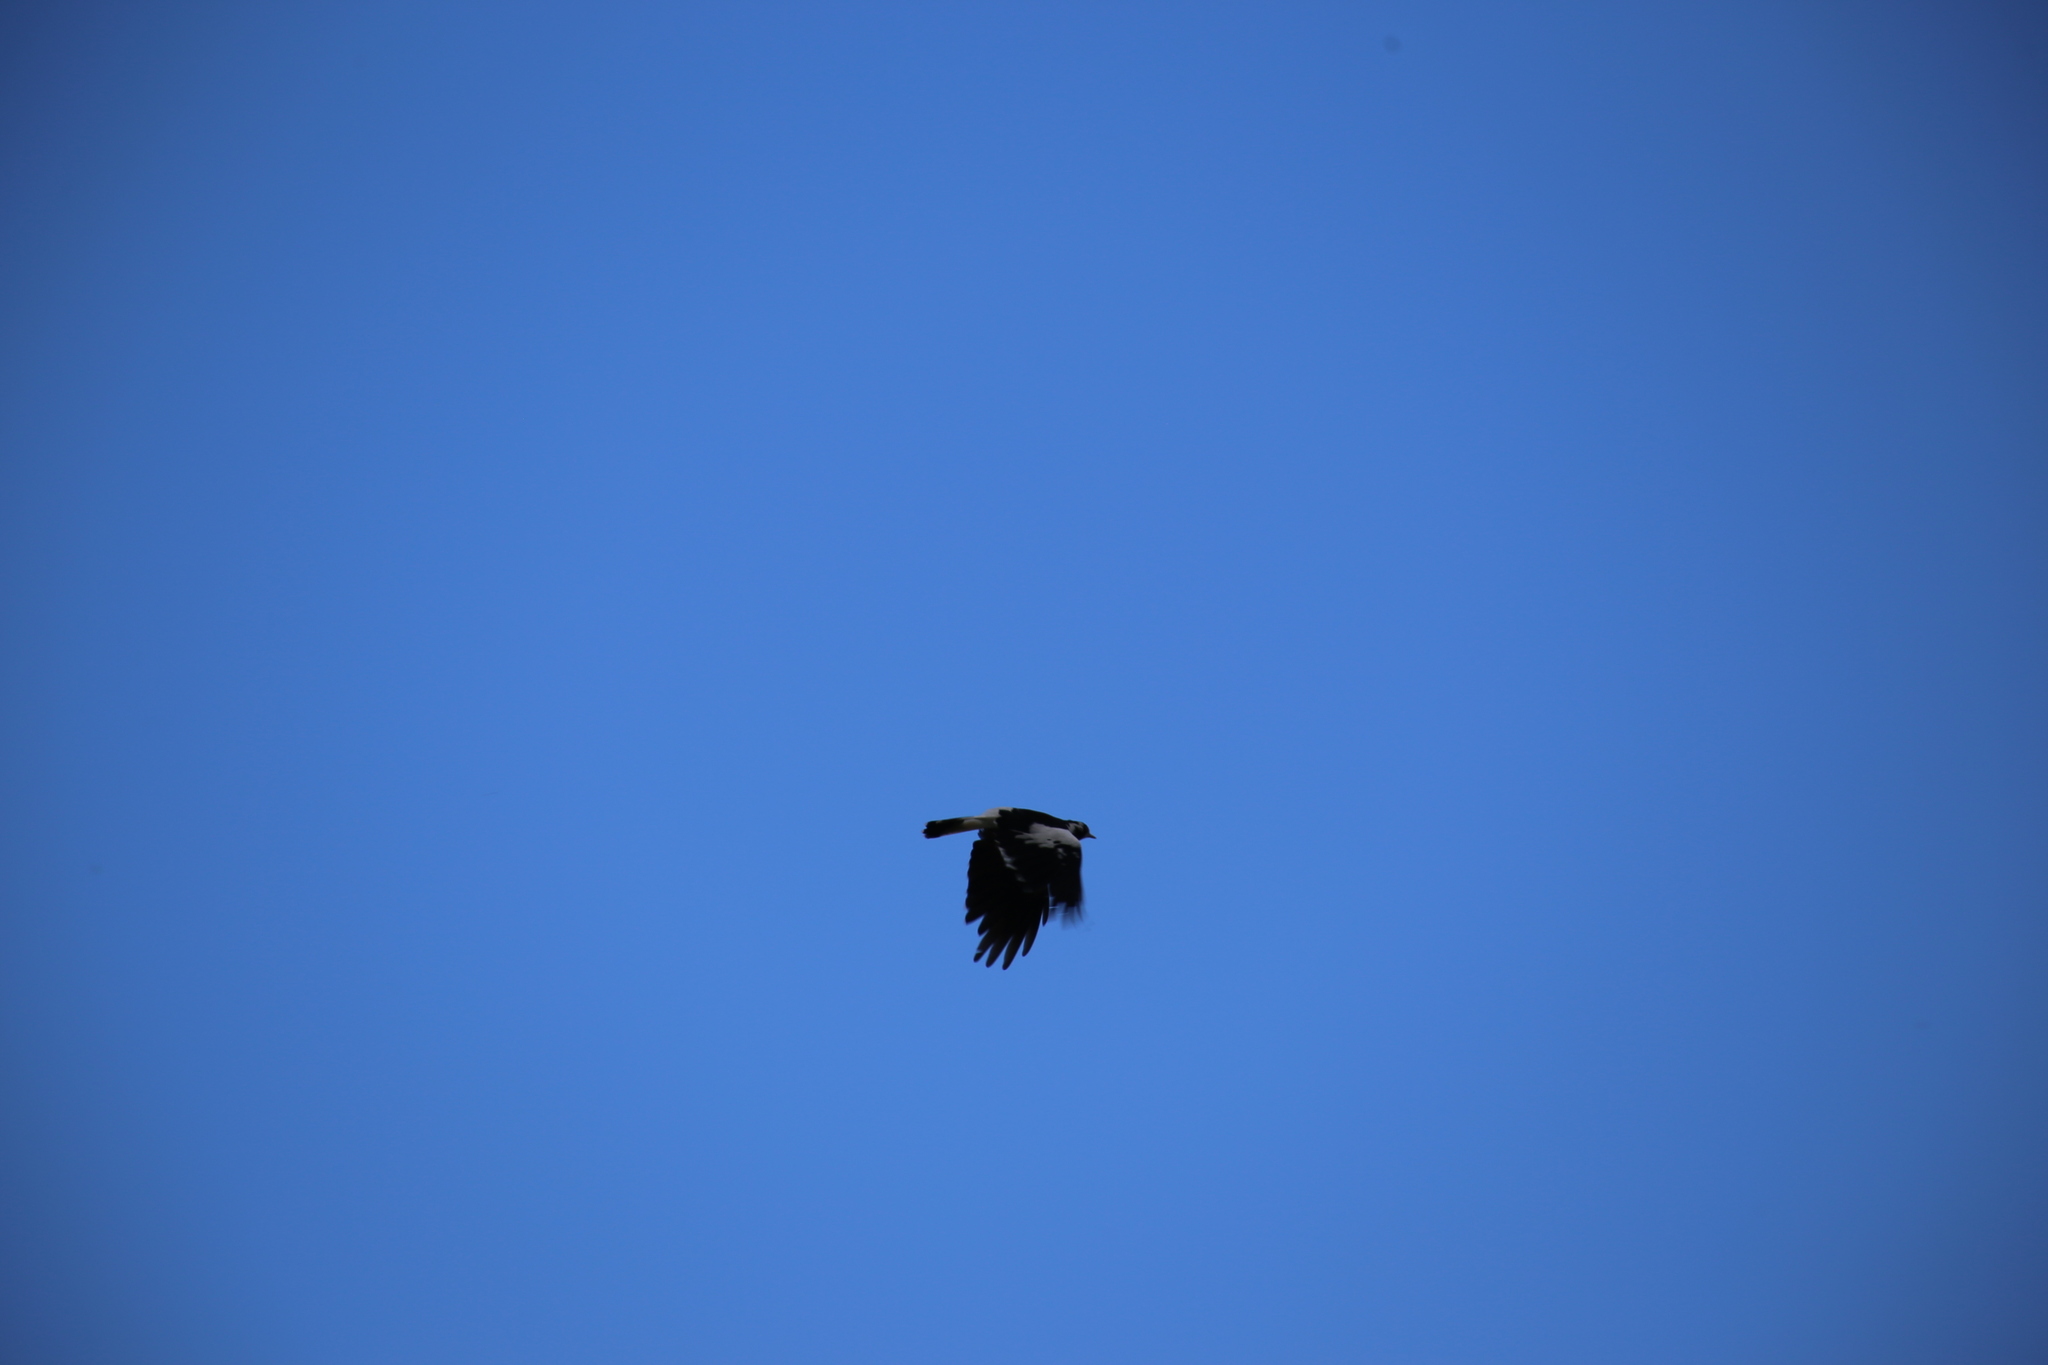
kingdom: Animalia
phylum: Chordata
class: Aves
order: Passeriformes
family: Monarchidae
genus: Grallina
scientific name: Grallina cyanoleuca
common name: Magpie-lark
